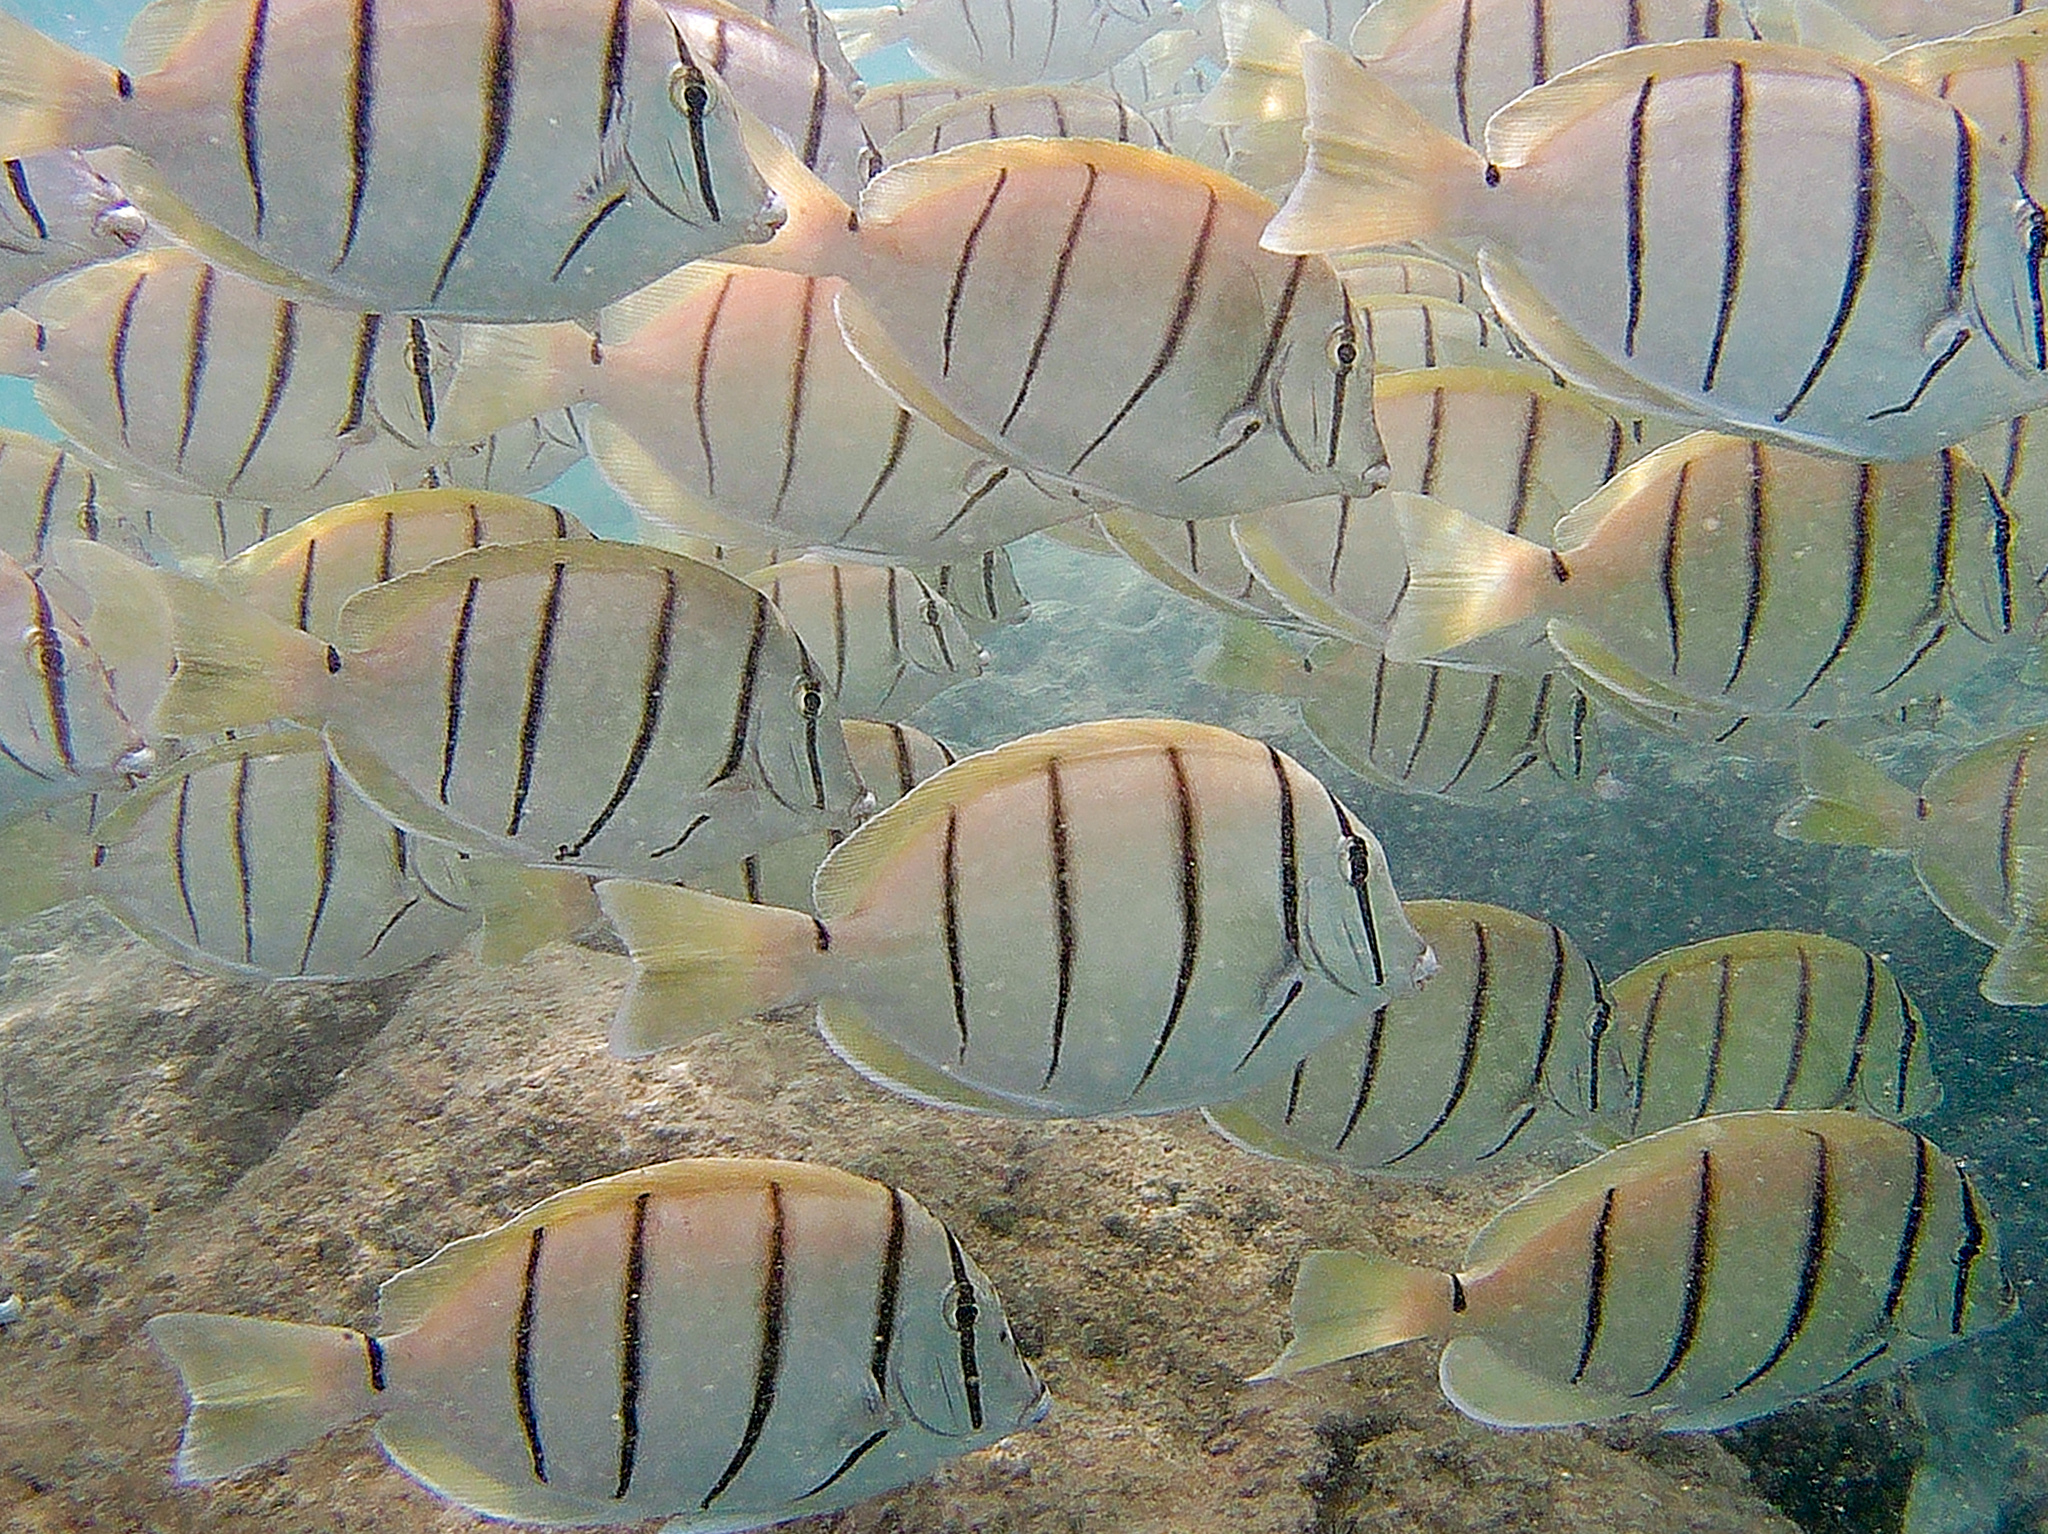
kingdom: Animalia
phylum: Chordata
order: Perciformes
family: Acanthuridae
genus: Acanthurus
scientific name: Acanthurus triostegus
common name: Convict surgeonfish
